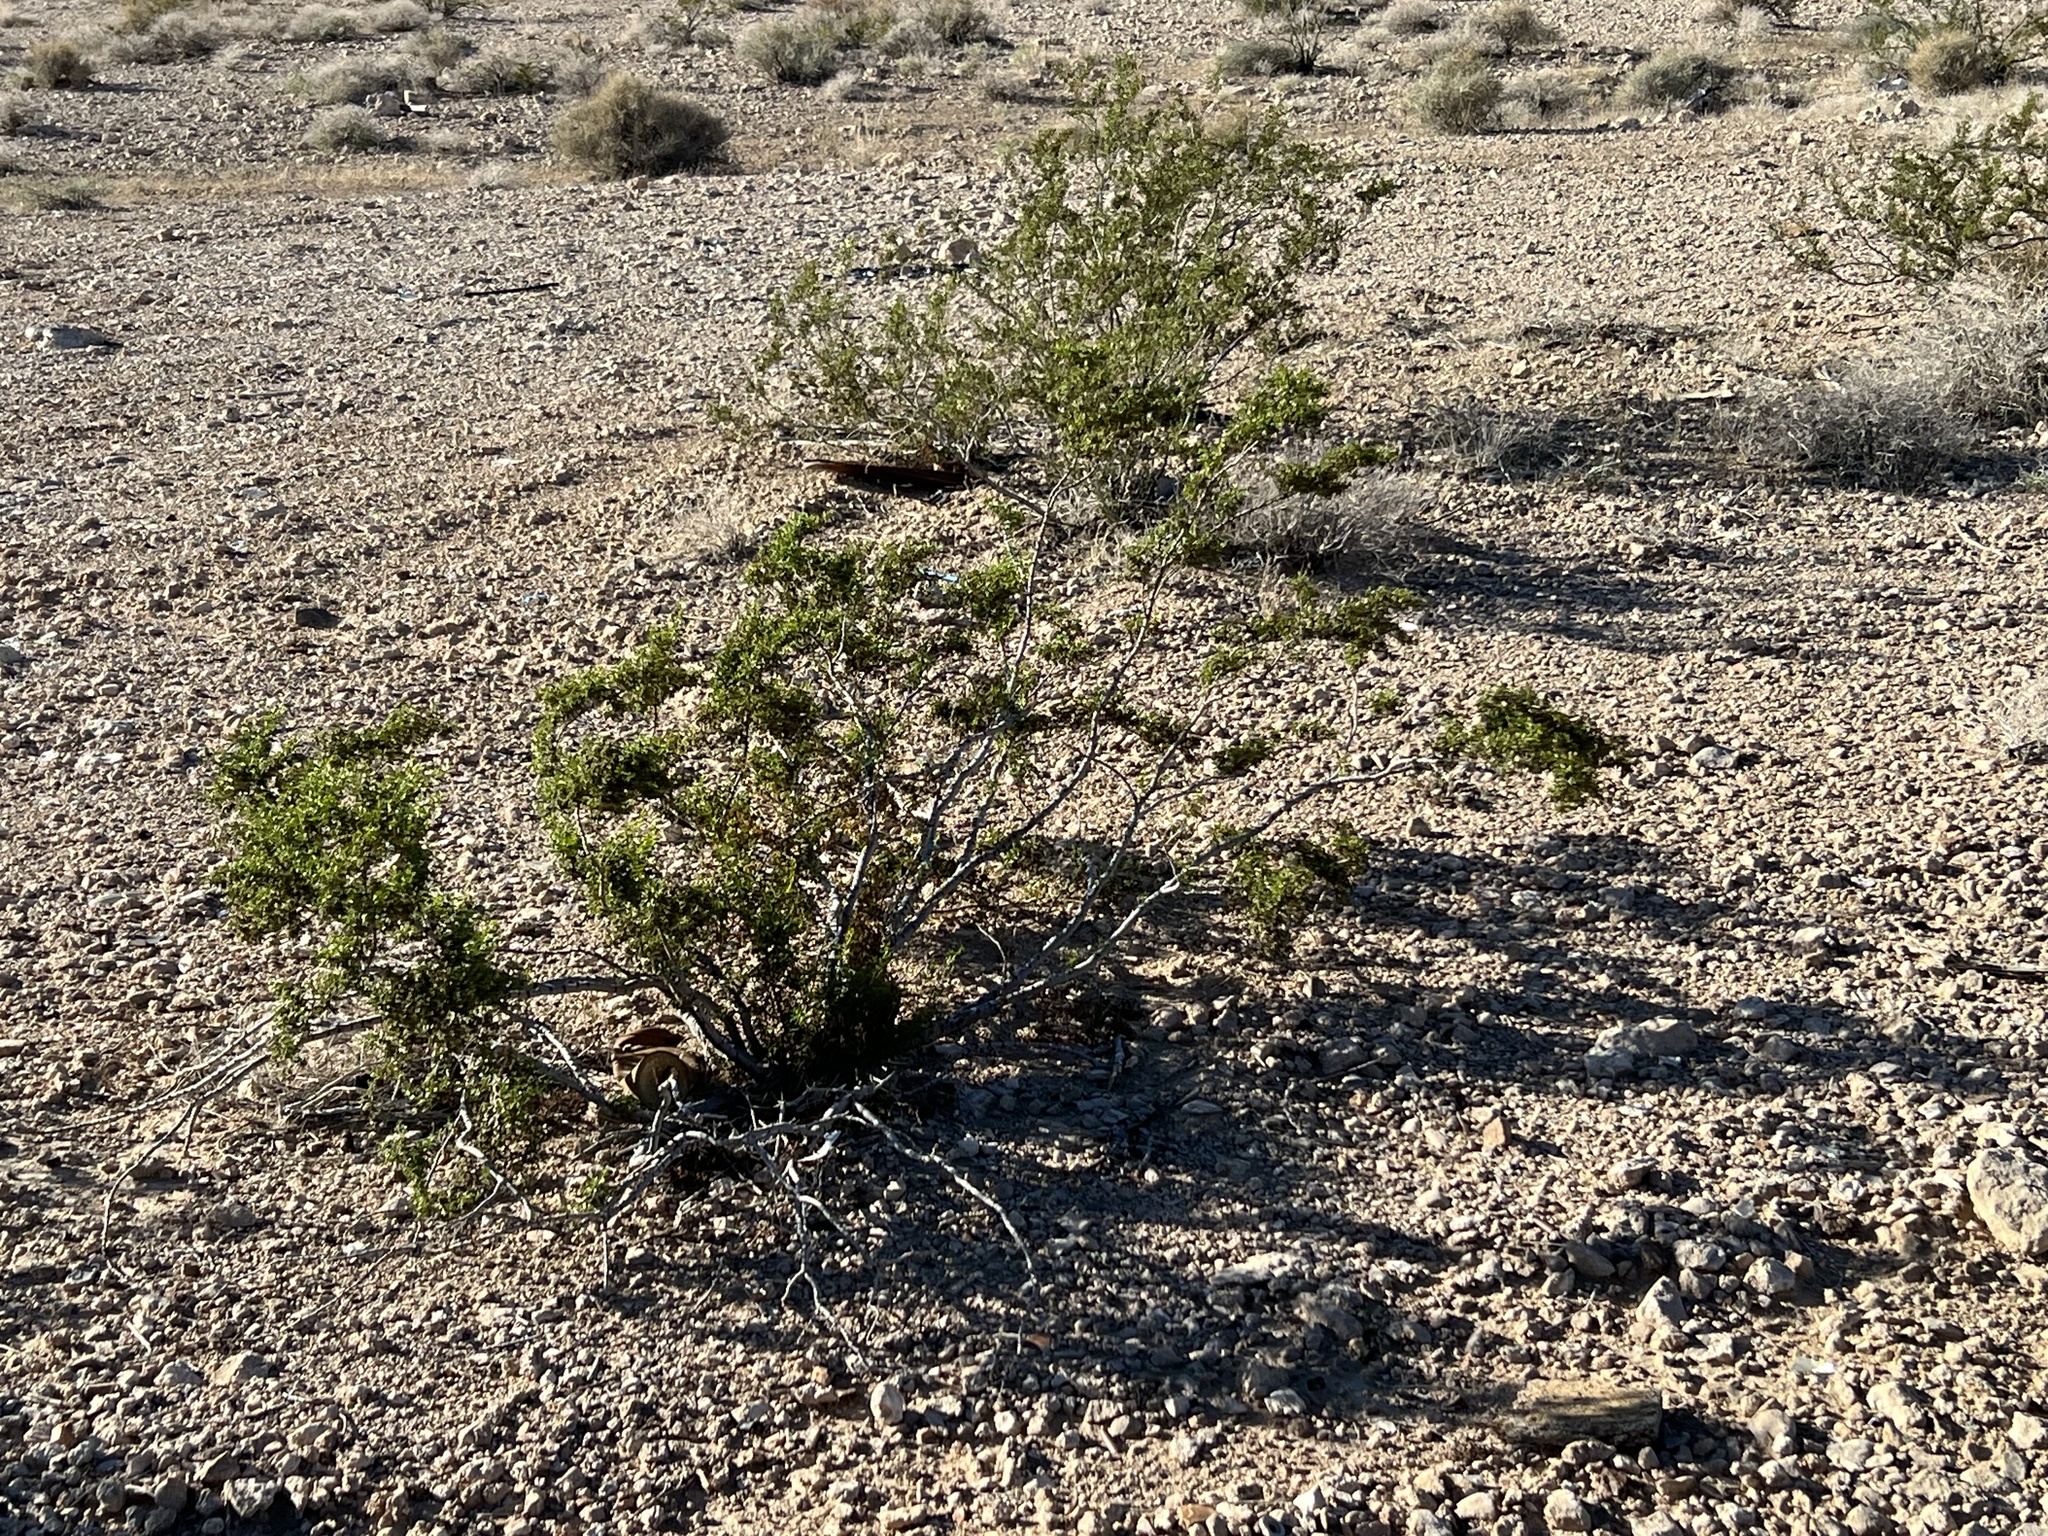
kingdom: Plantae
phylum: Tracheophyta
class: Magnoliopsida
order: Zygophyllales
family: Zygophyllaceae
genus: Larrea
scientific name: Larrea tridentata
